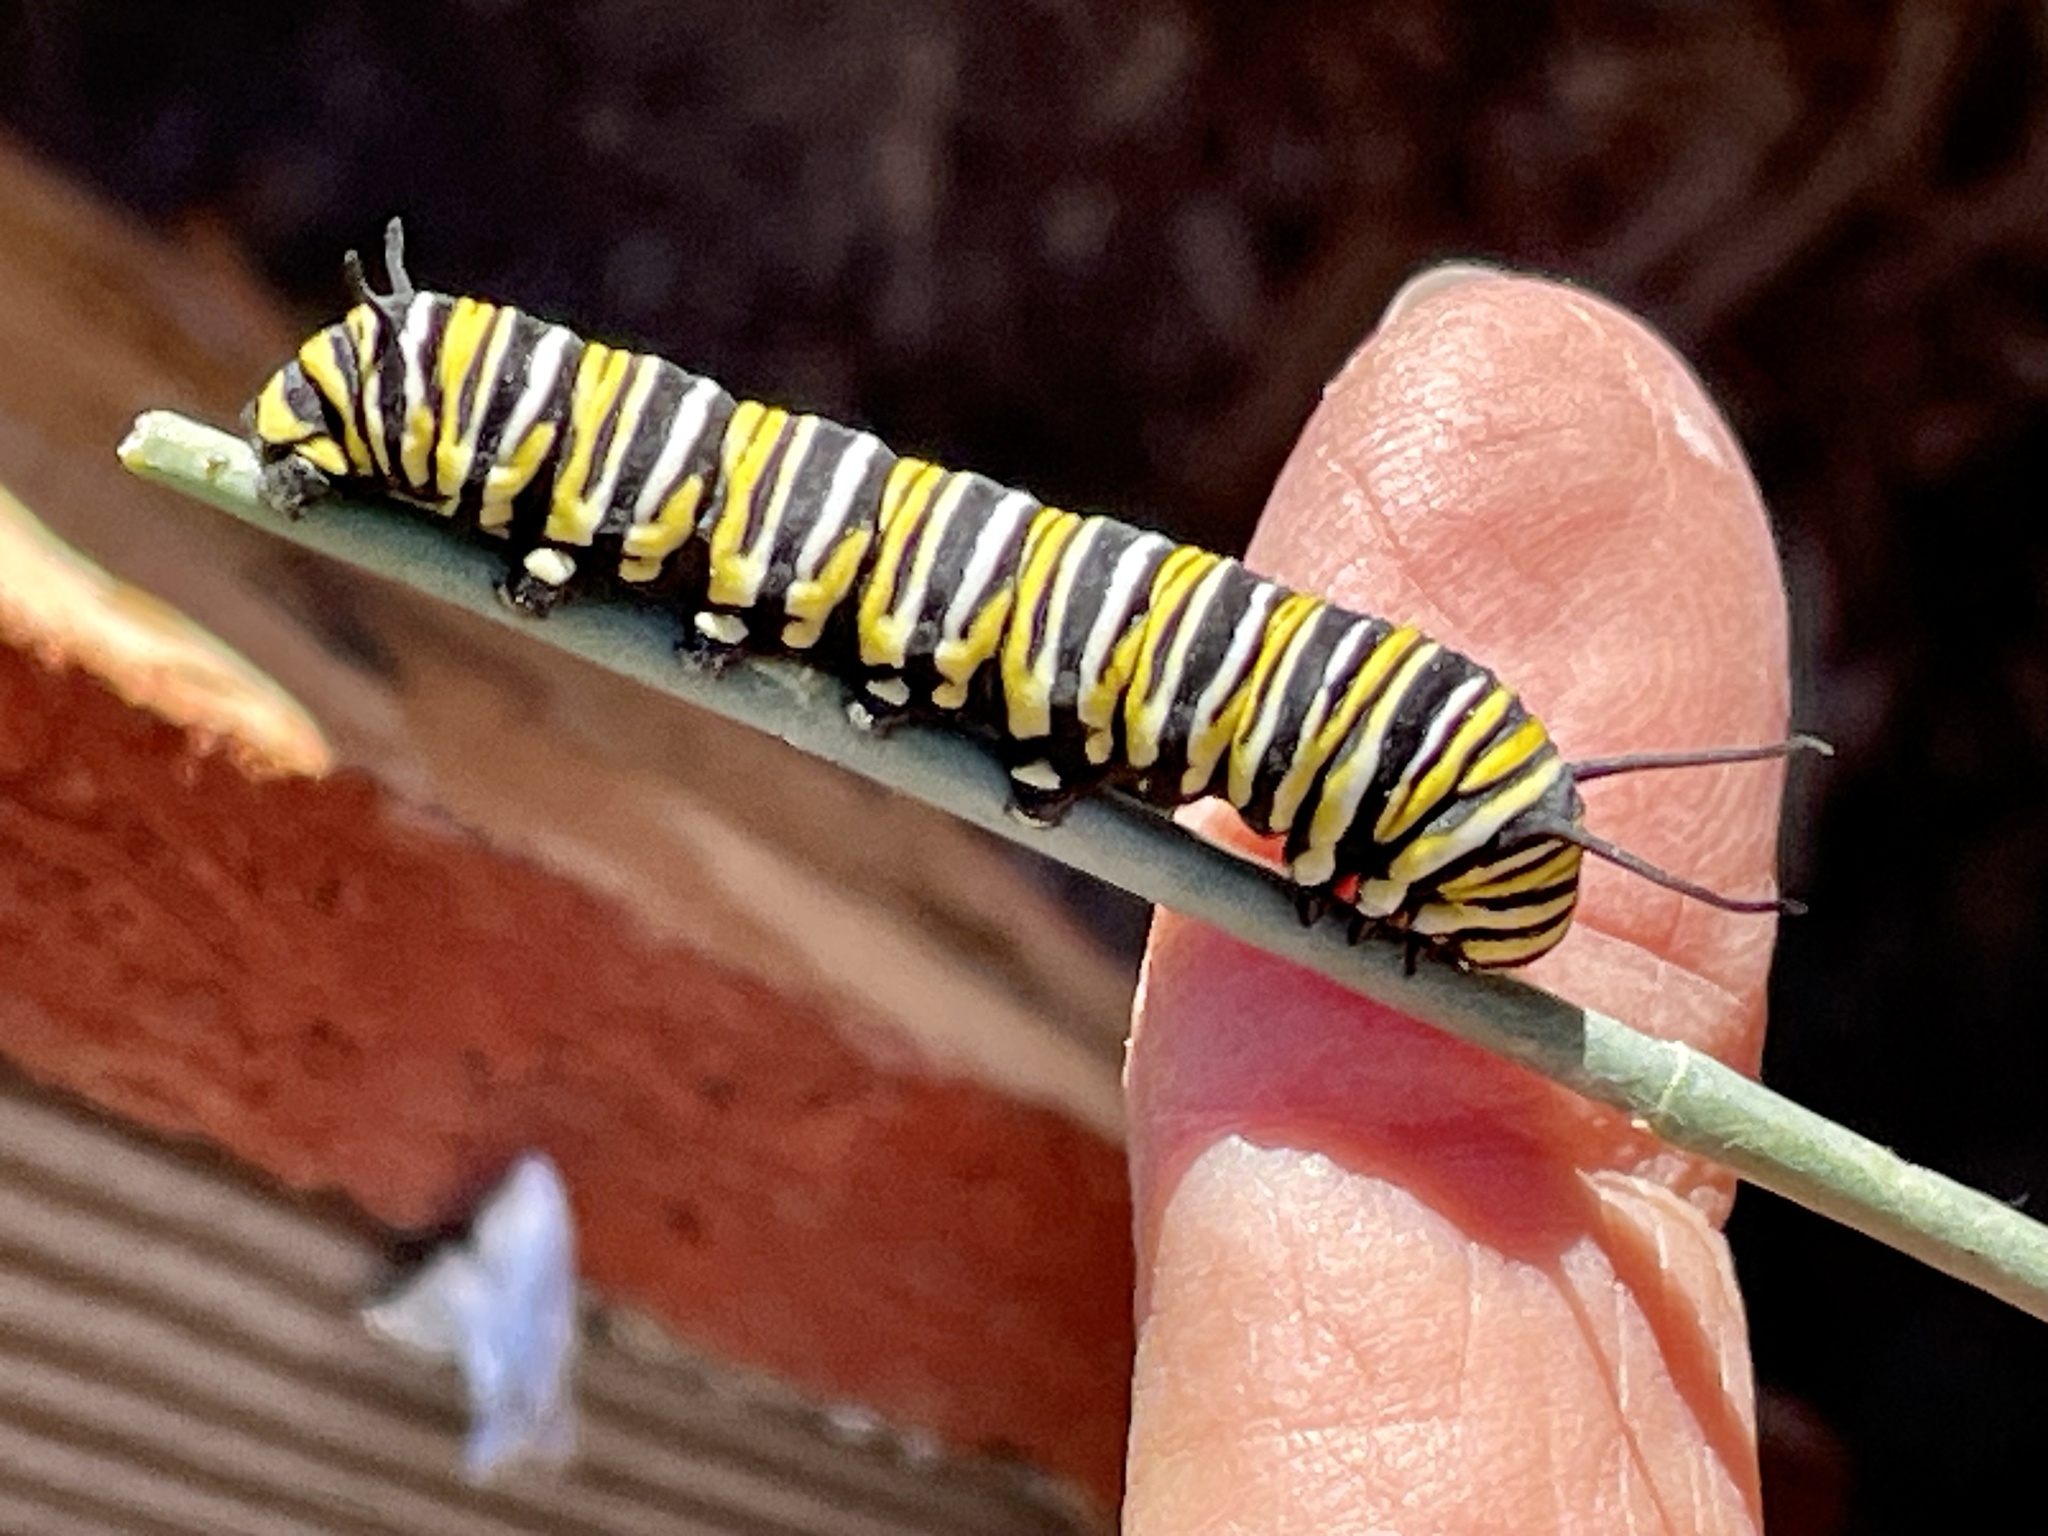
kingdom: Animalia
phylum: Arthropoda
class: Insecta
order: Lepidoptera
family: Nymphalidae
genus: Danaus
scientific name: Danaus plexippus
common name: Monarch
